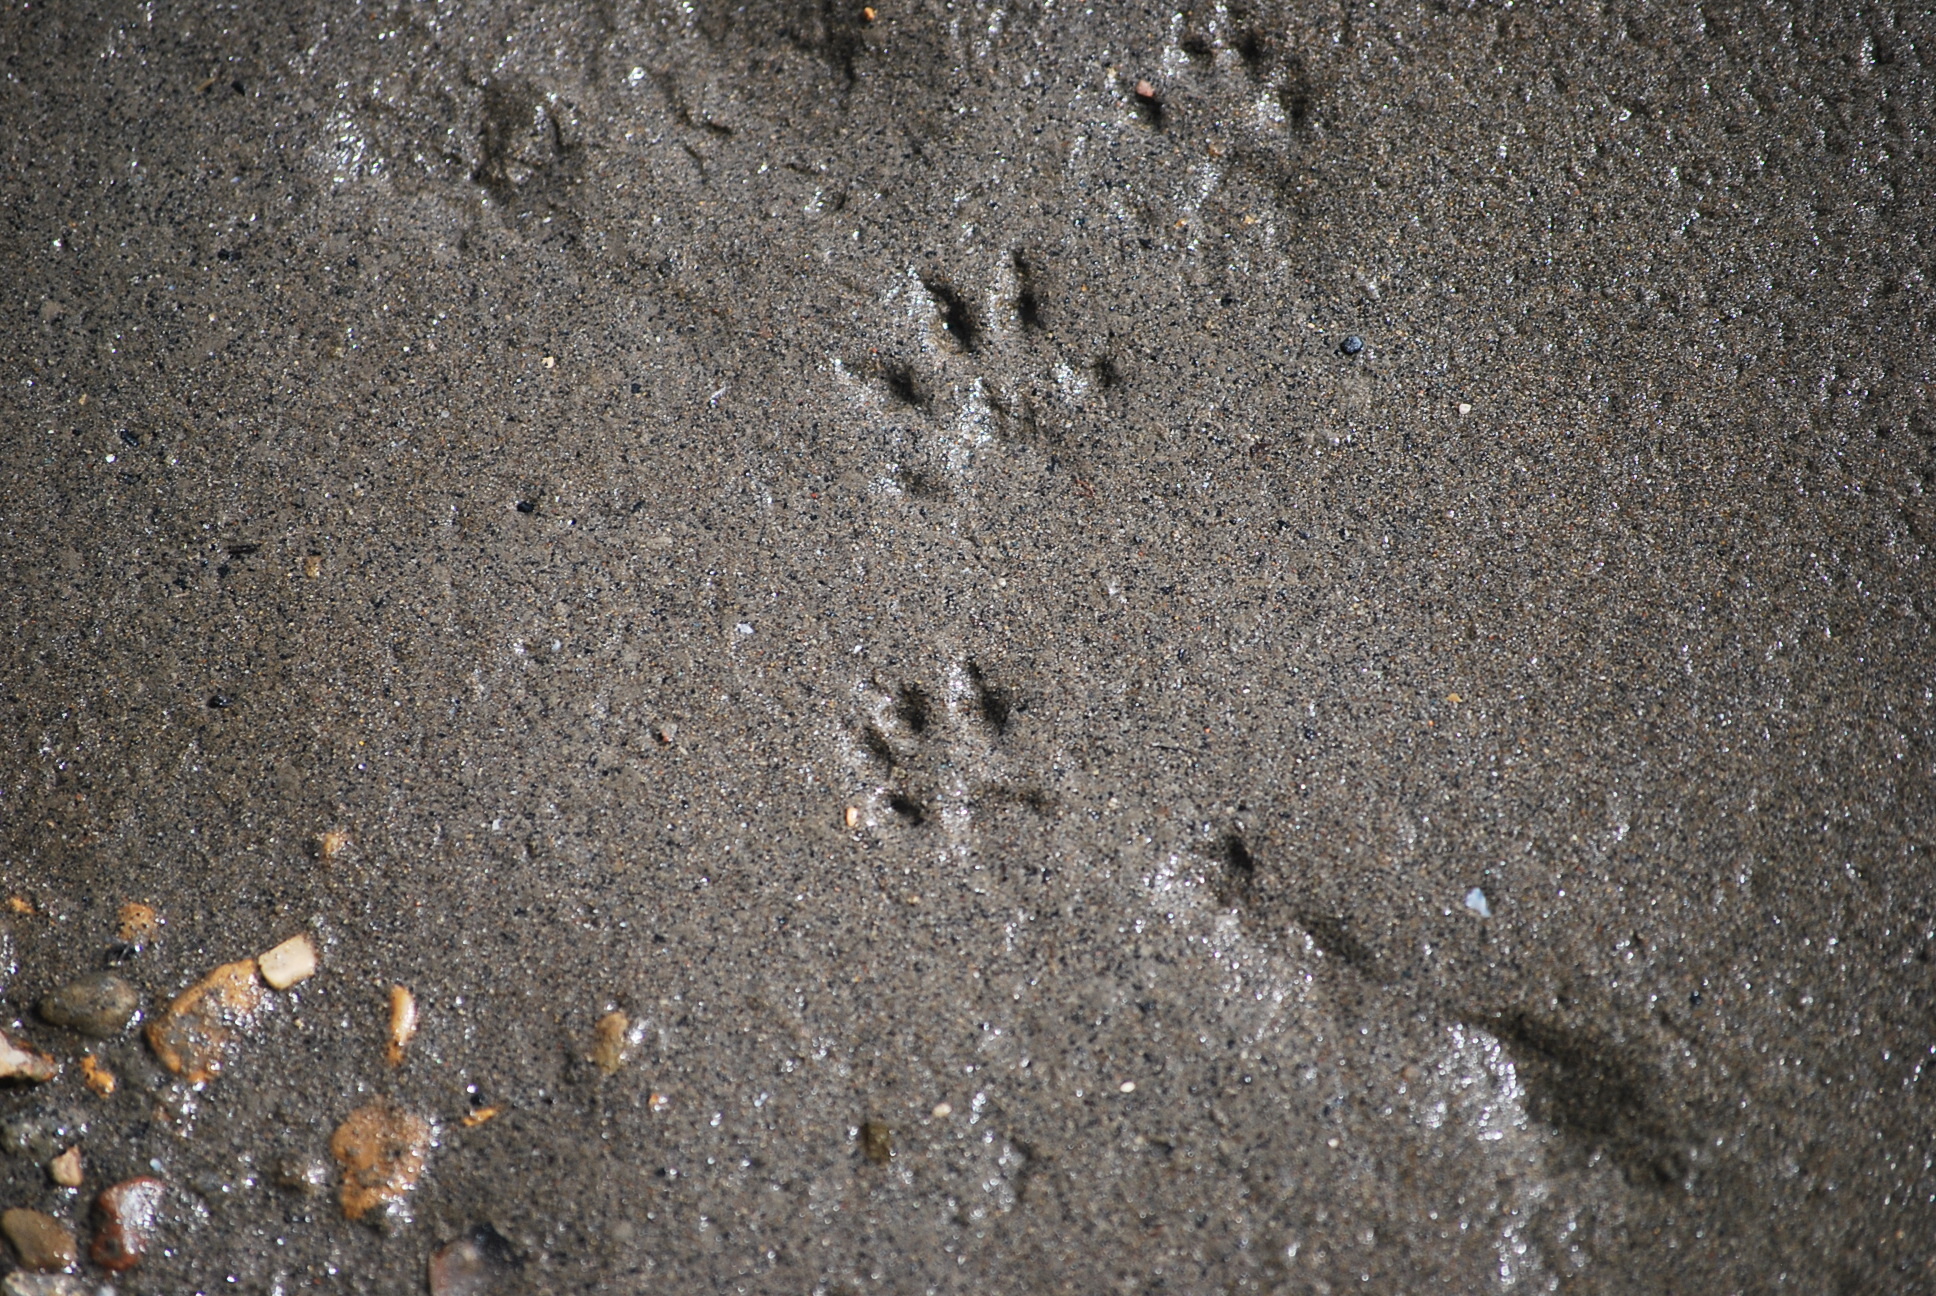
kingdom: Animalia
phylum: Chordata
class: Mammalia
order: Carnivora
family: Mustelidae
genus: Mustela
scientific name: Mustela
